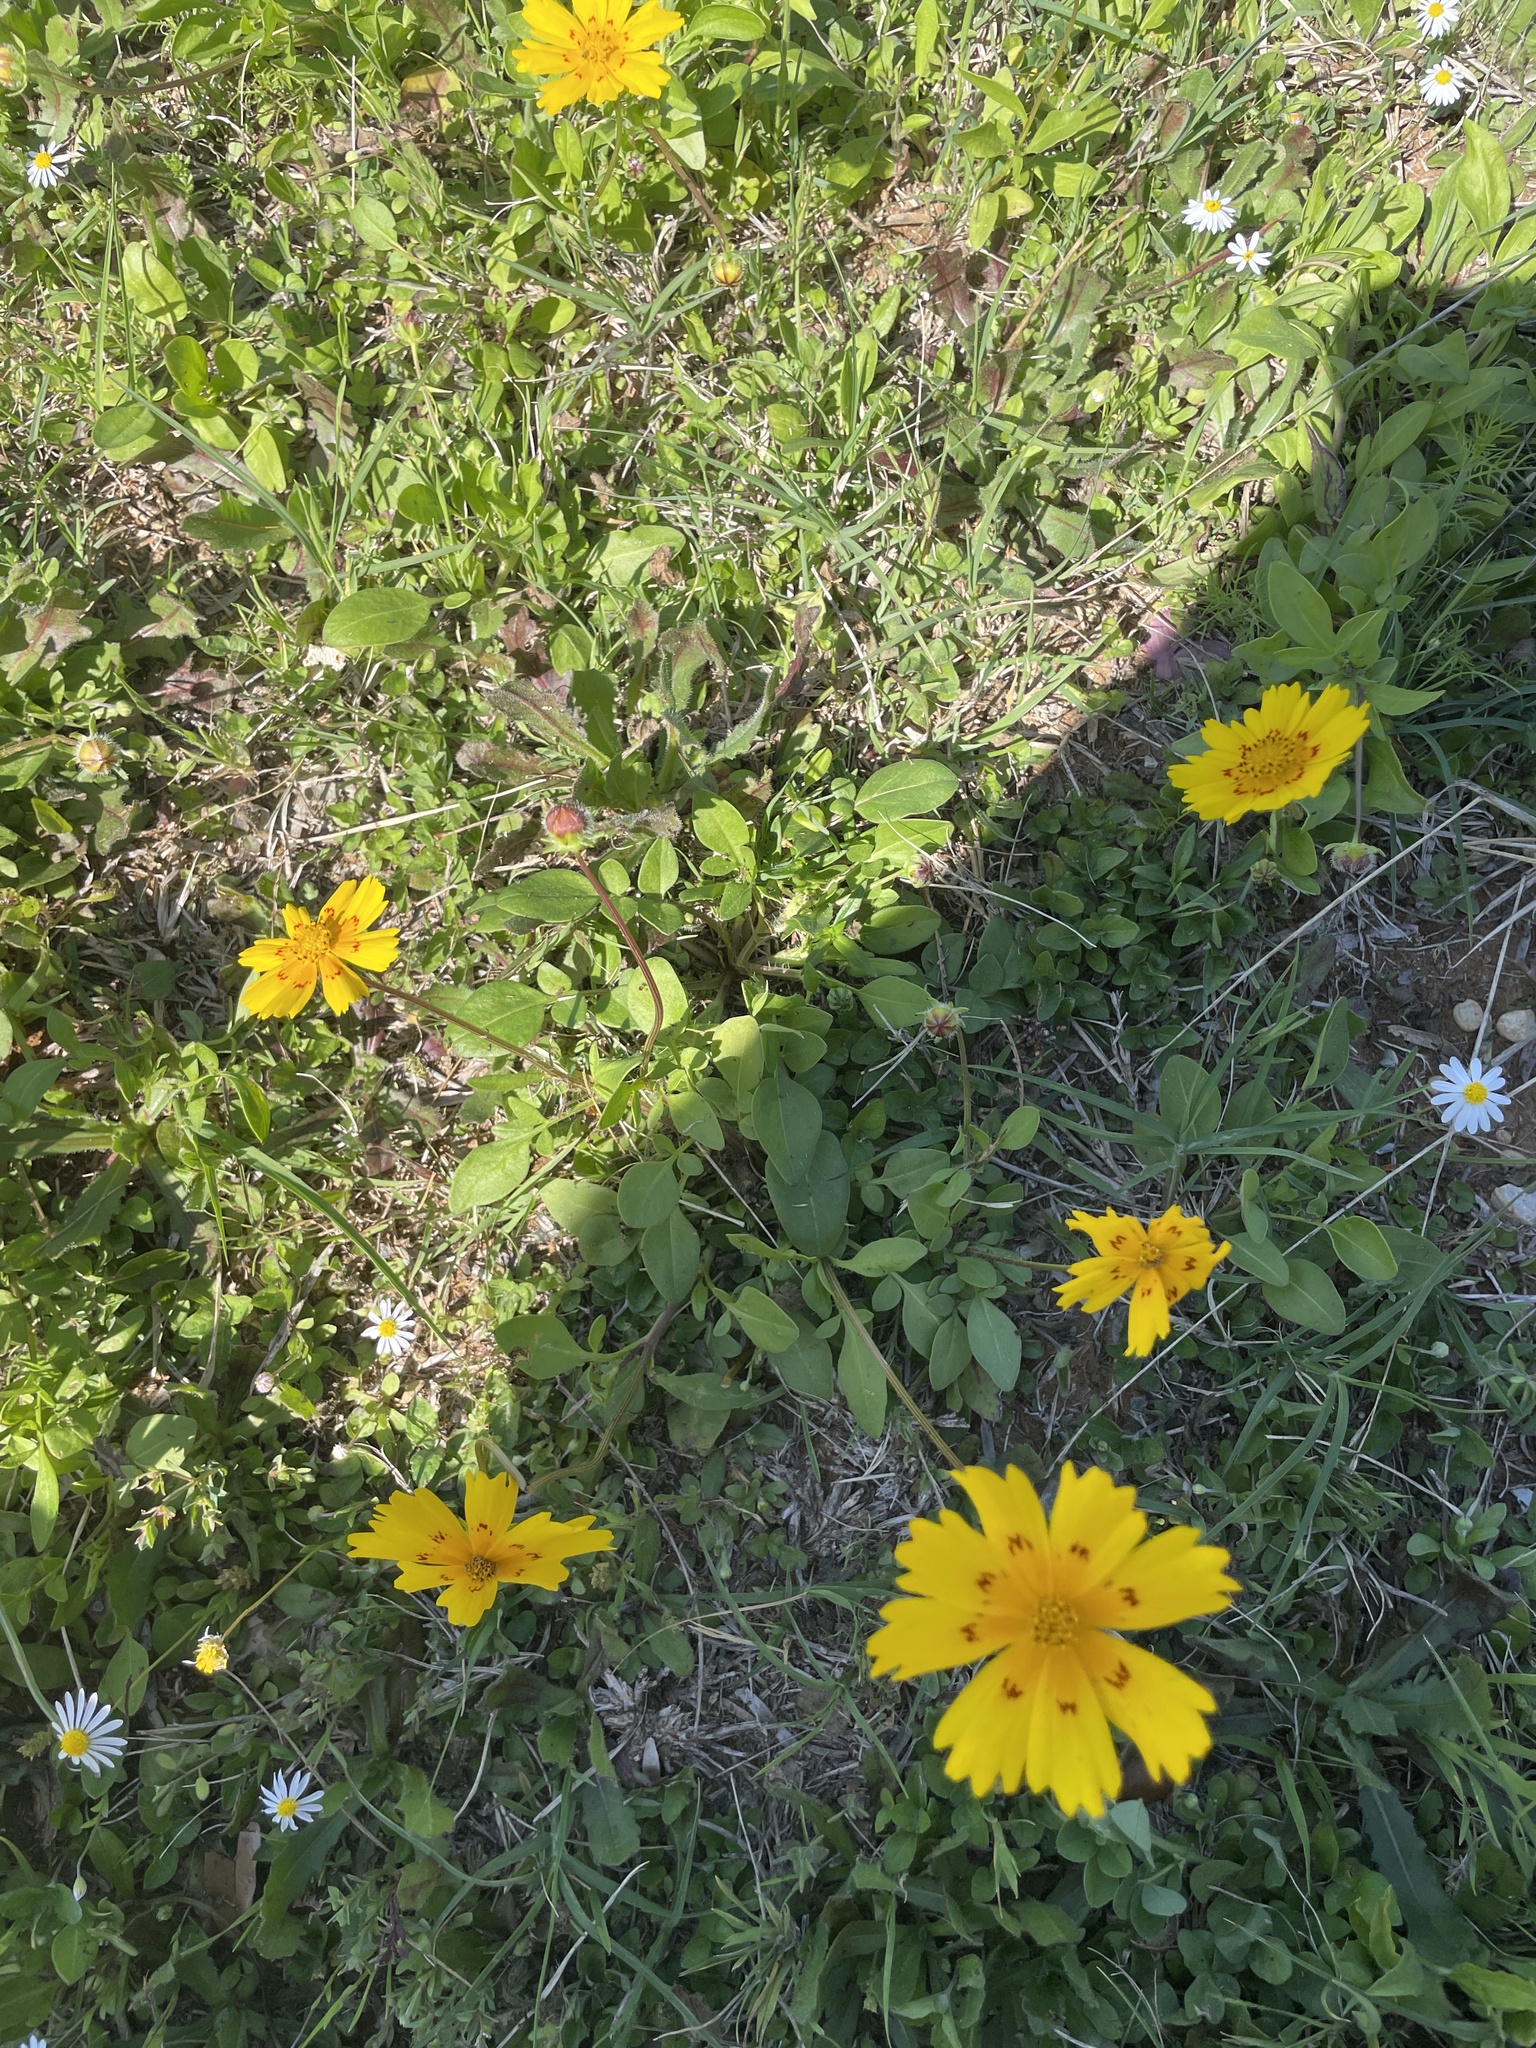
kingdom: Plantae
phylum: Tracheophyta
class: Magnoliopsida
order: Asterales
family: Asteraceae
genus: Coreopsis
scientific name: Coreopsis nuecensis
